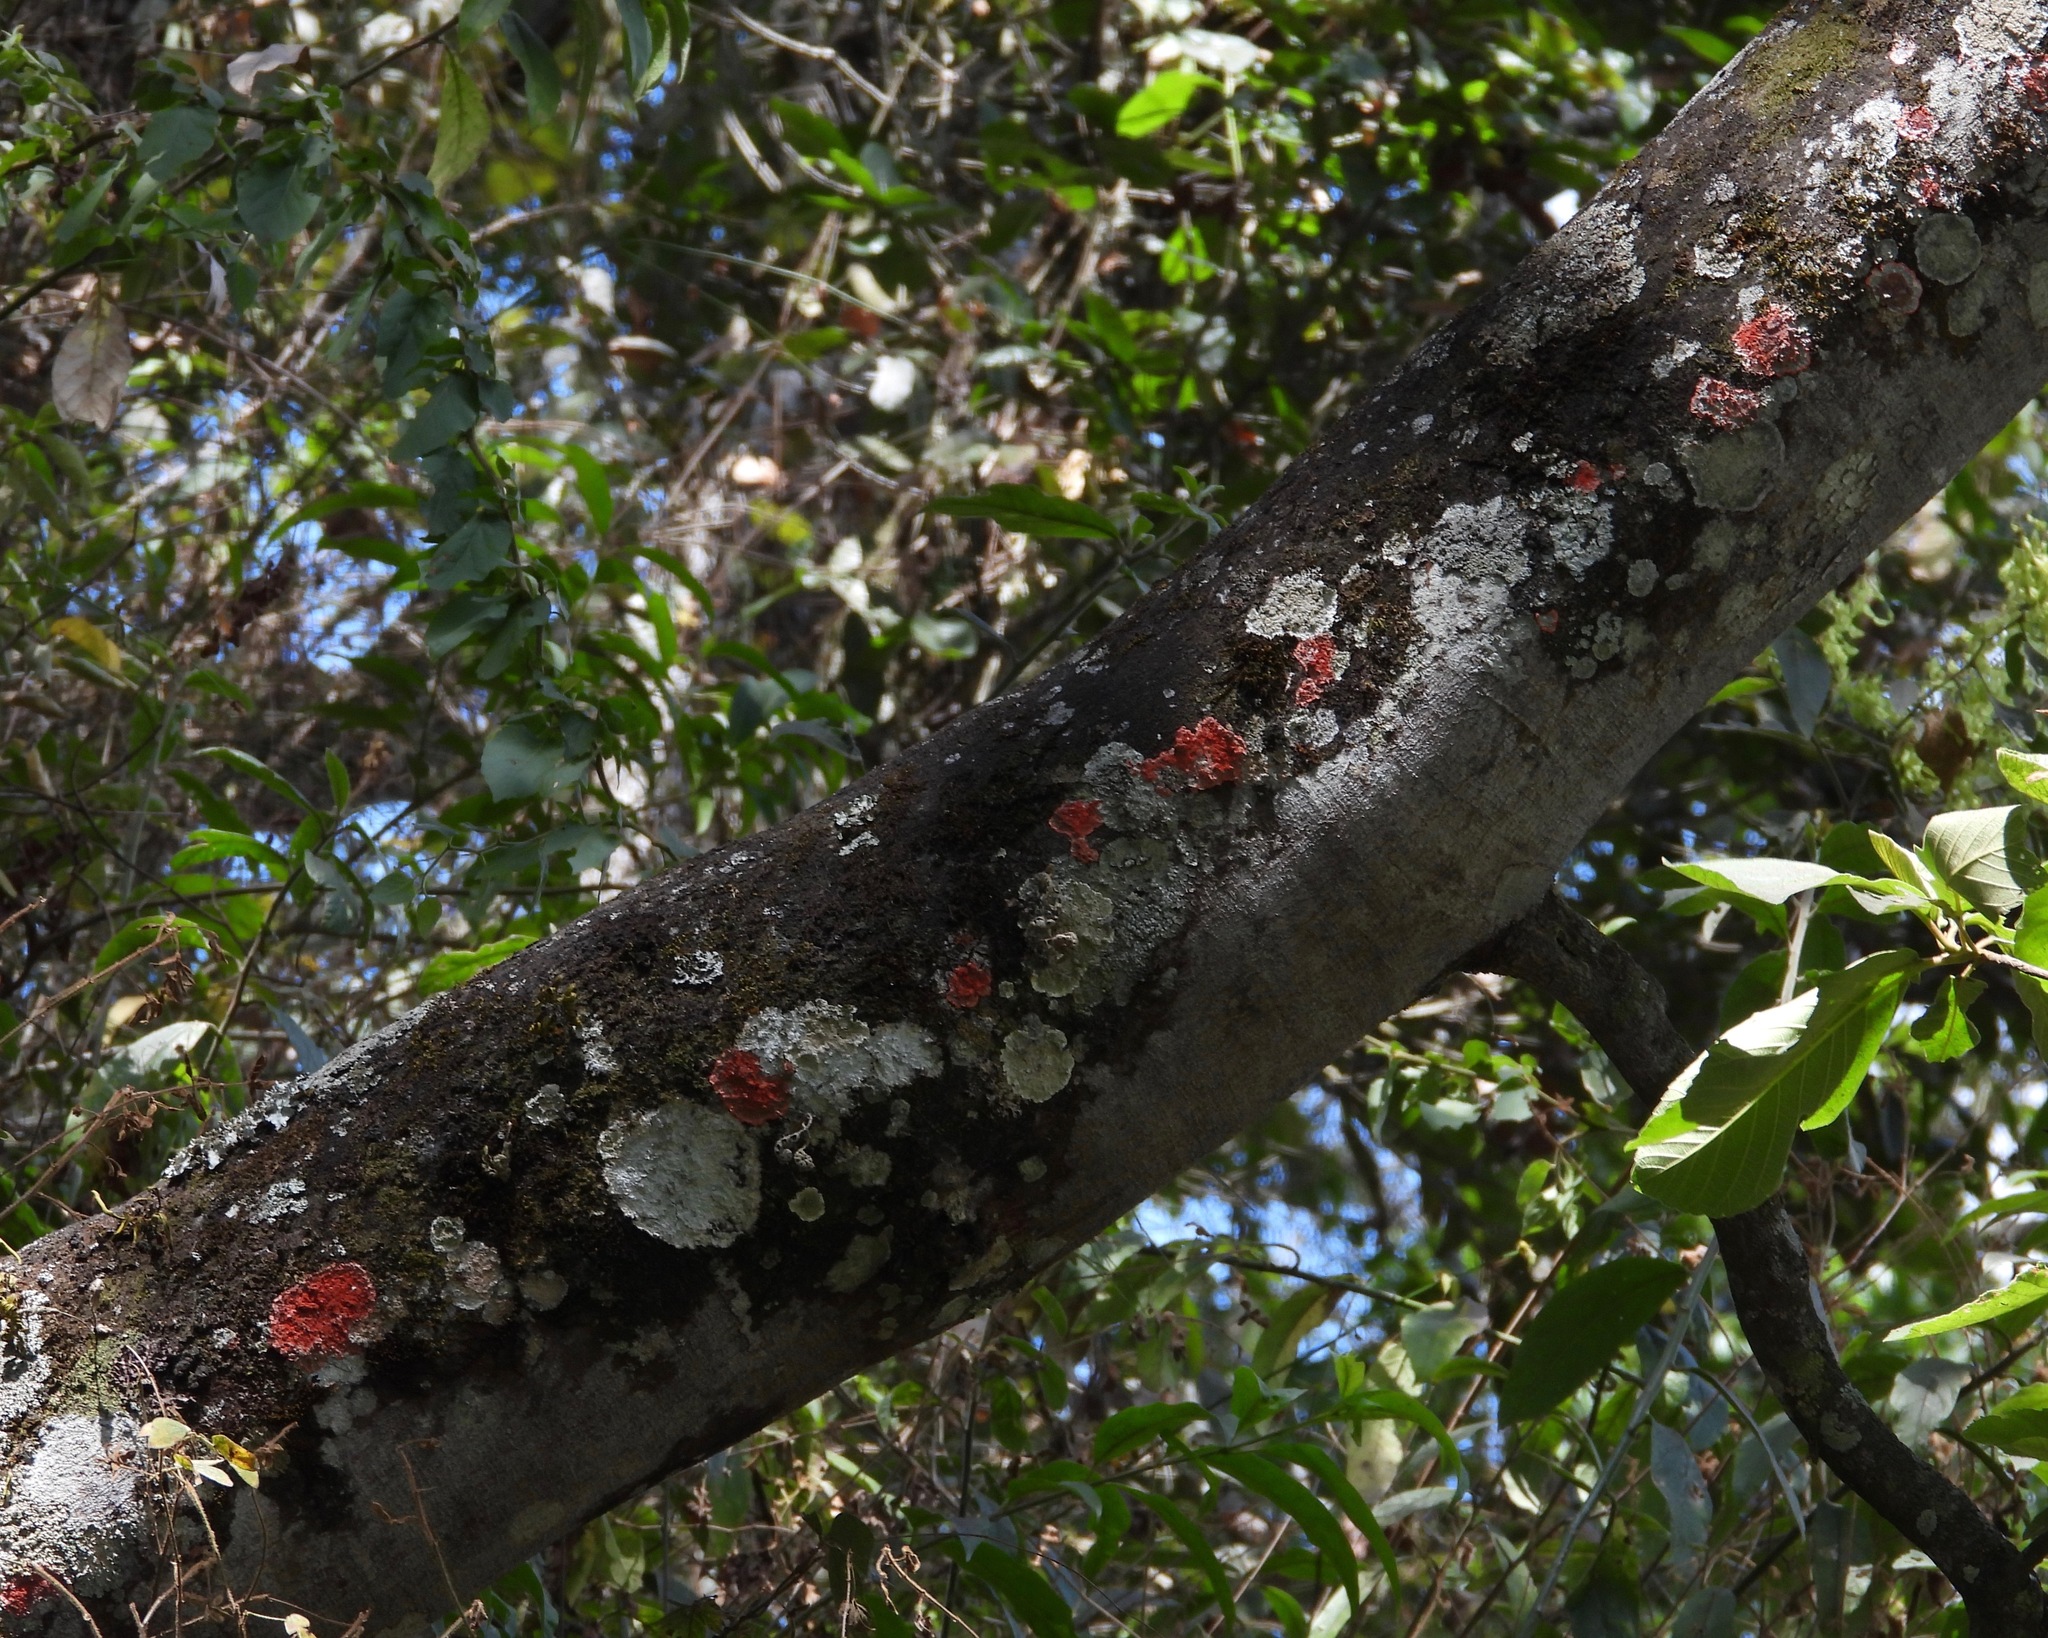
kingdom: Fungi
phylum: Ascomycota
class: Arthoniomycetes
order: Arthoniales
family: Arthoniaceae
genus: Herpothallon
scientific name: Herpothallon rubrocinctum
